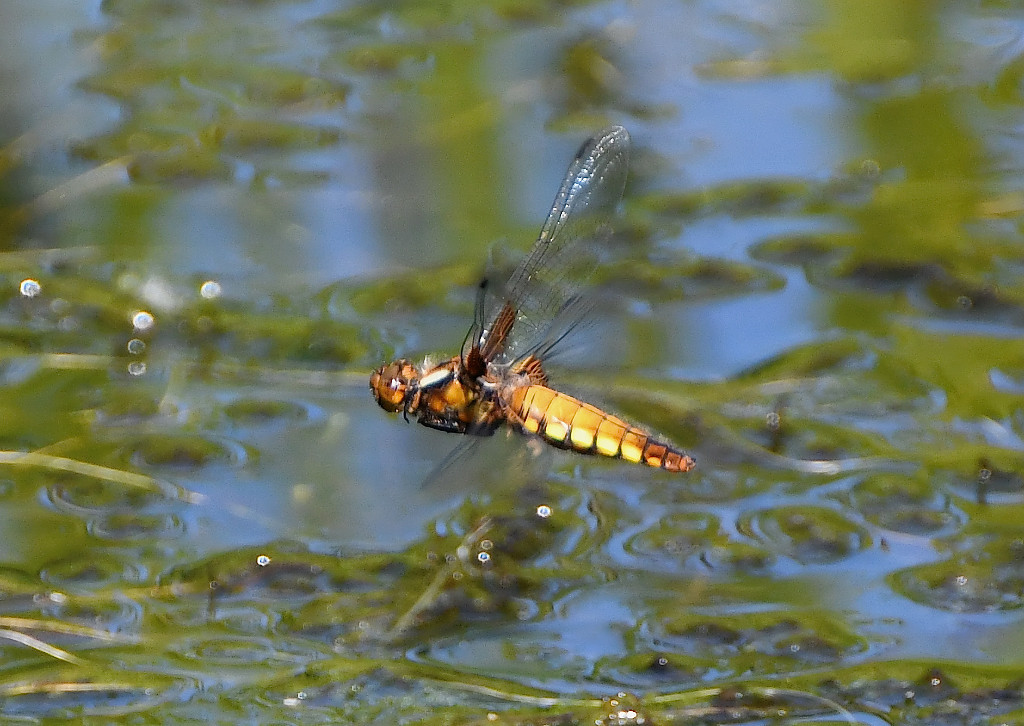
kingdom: Animalia
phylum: Arthropoda
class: Insecta
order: Odonata
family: Libellulidae
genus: Libellula
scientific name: Libellula depressa
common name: Broad-bodied chaser
